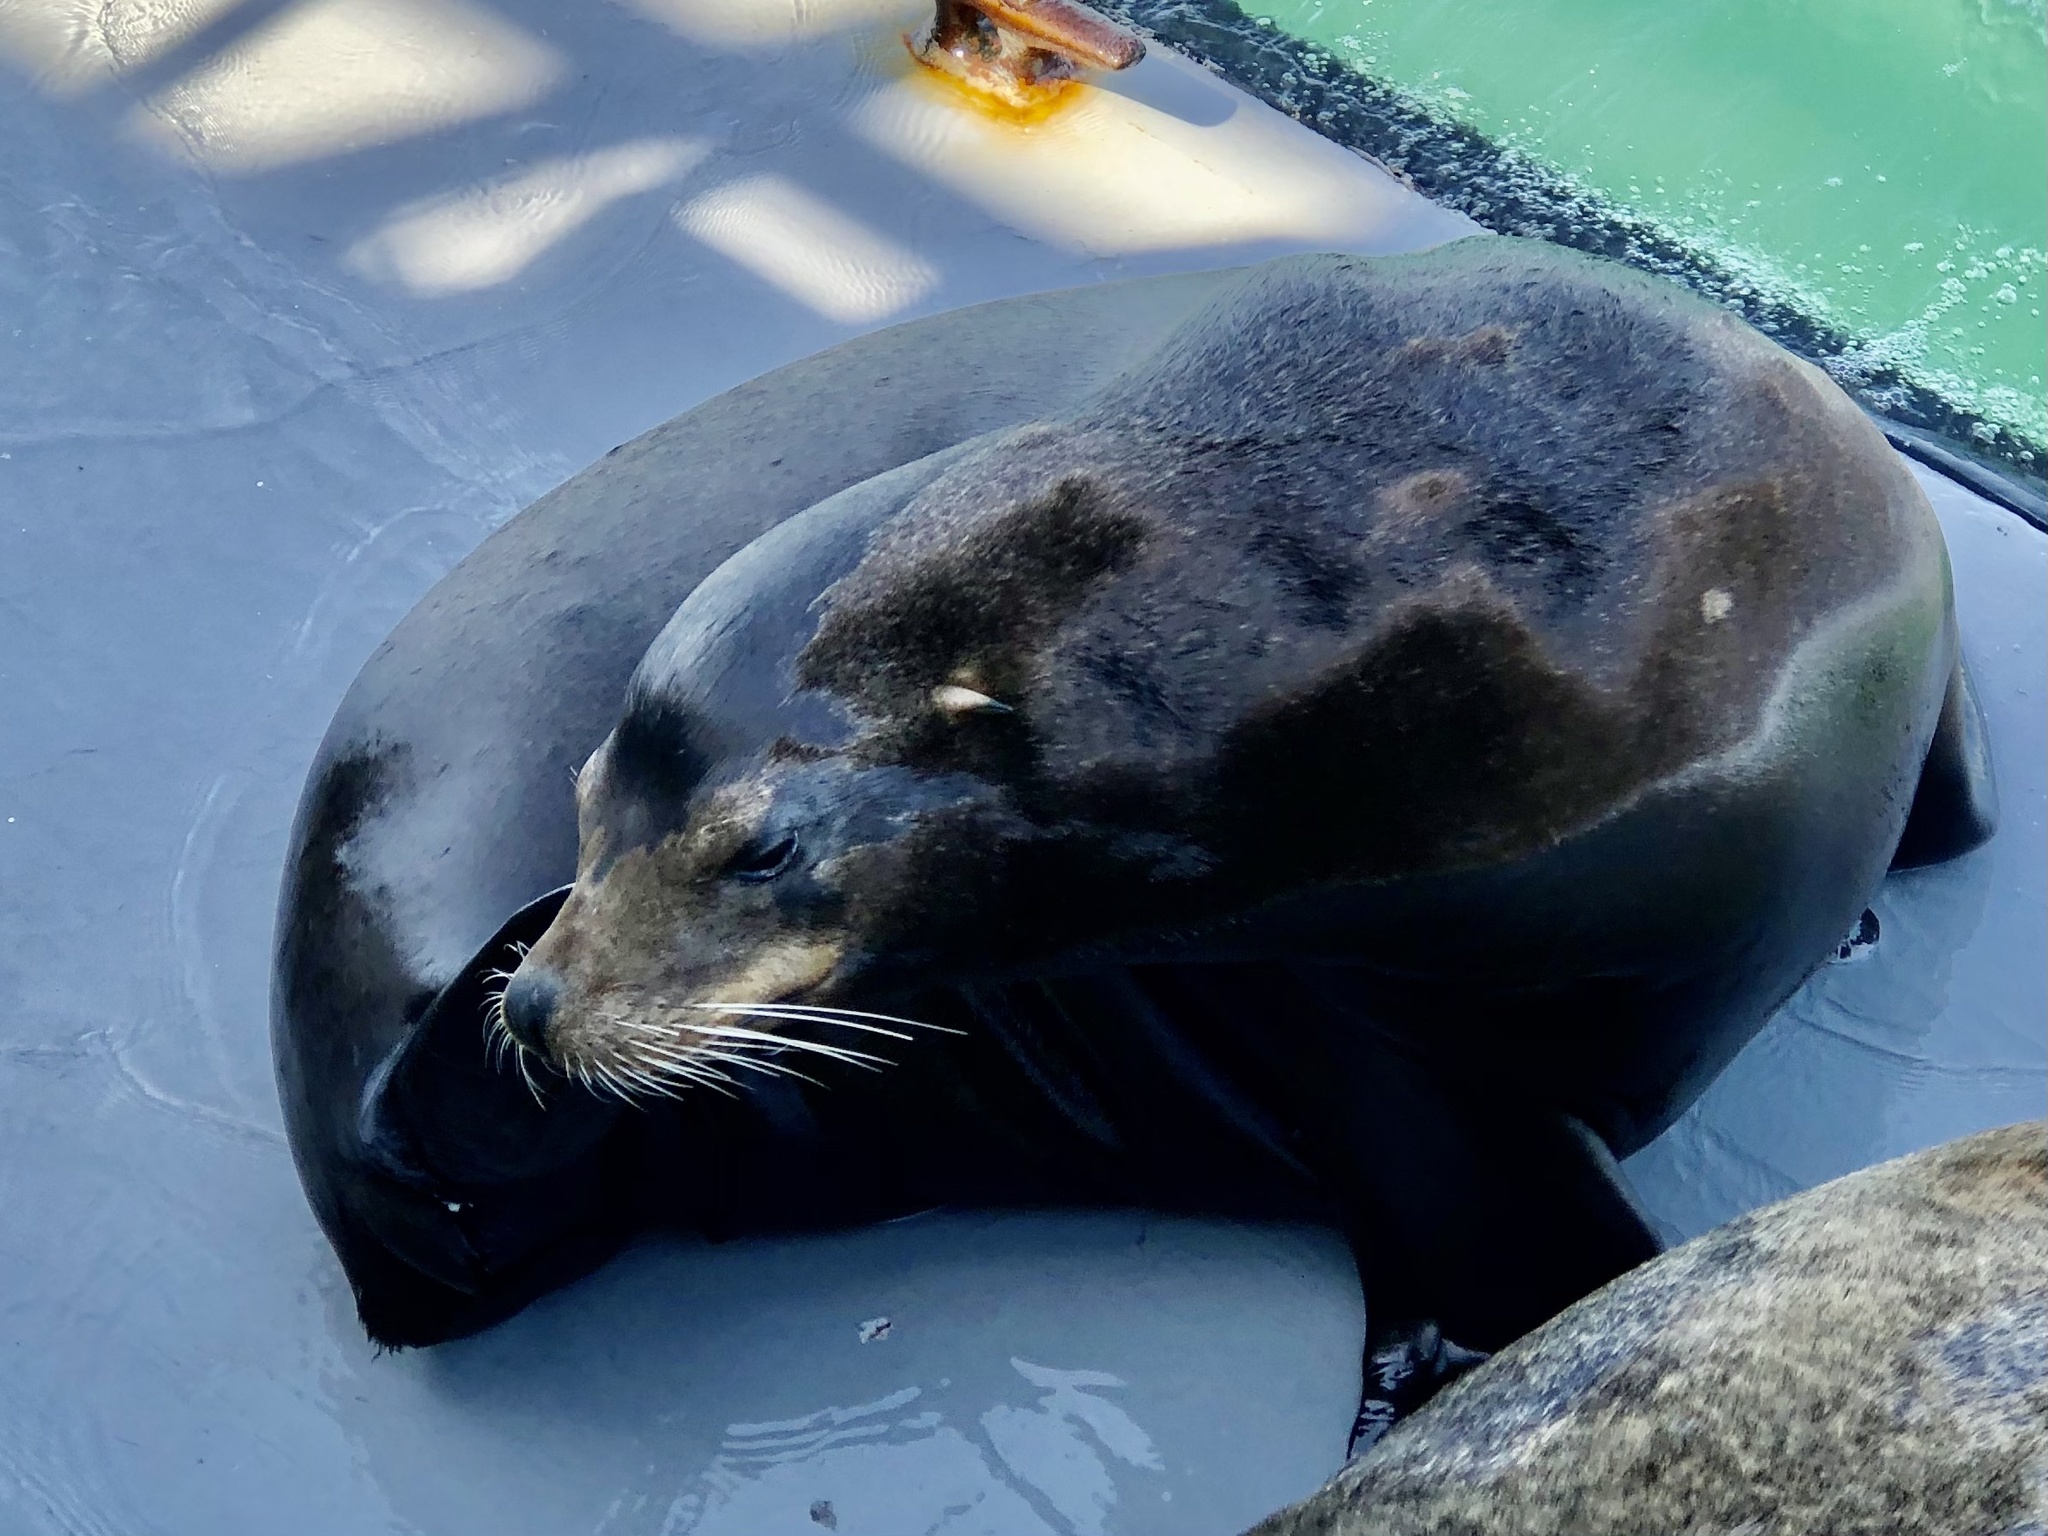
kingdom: Animalia
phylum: Chordata
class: Mammalia
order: Carnivora
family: Otariidae
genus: Zalophus
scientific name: Zalophus californianus
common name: California sea lion
